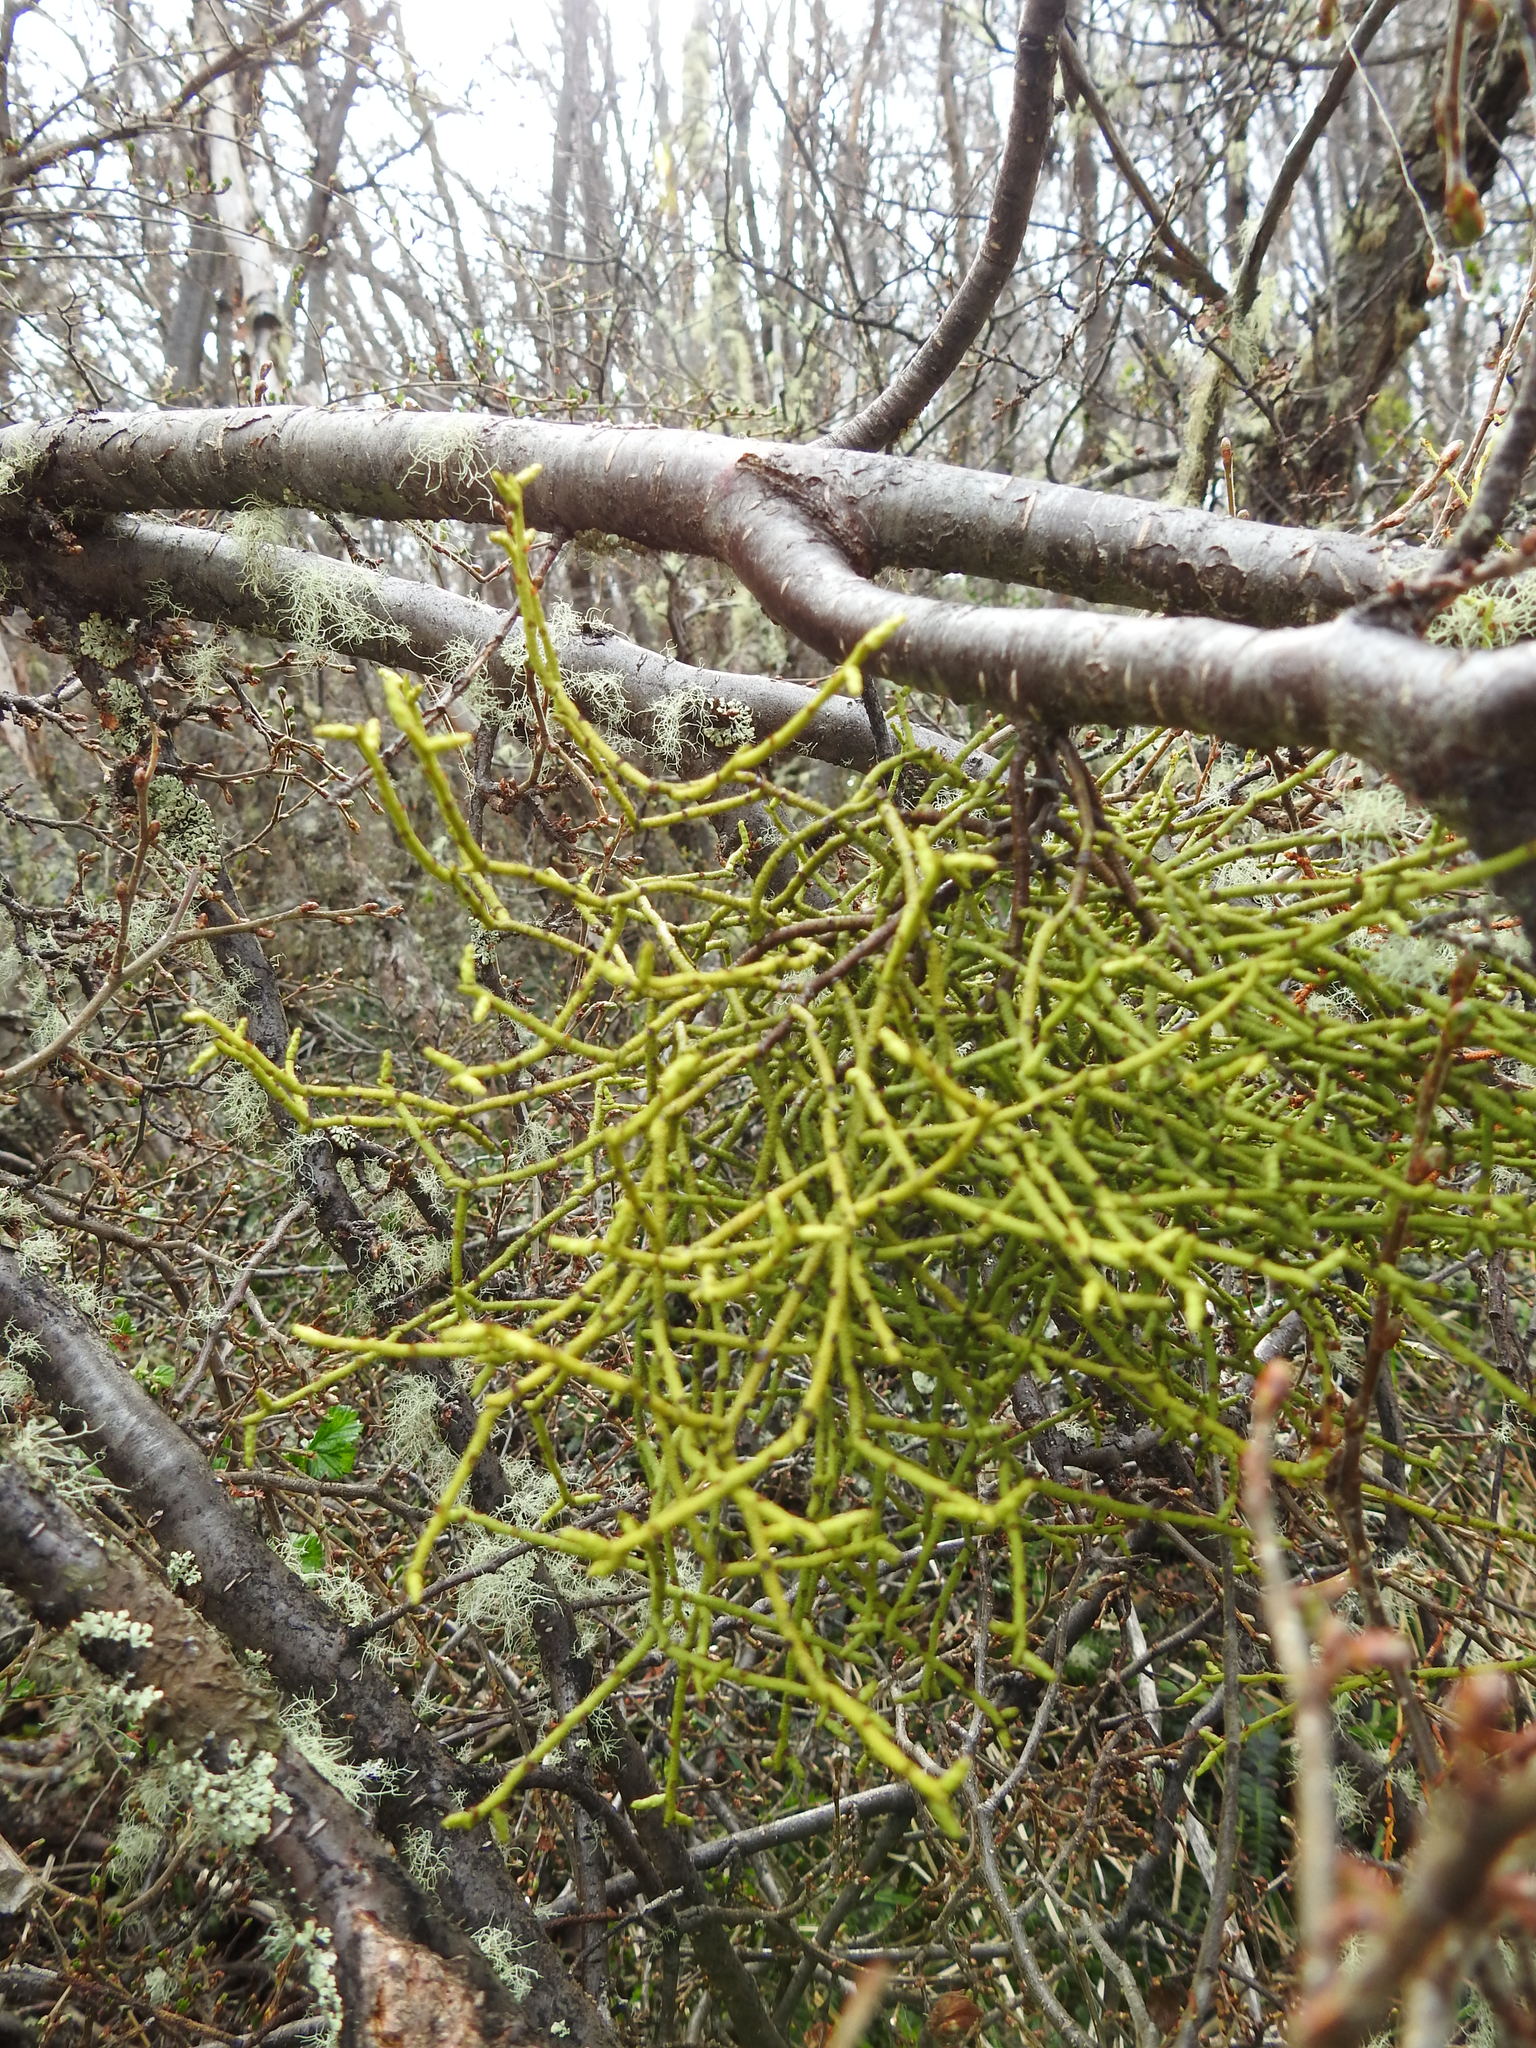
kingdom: Plantae
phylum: Tracheophyta
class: Magnoliopsida
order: Santalales
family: Misodendraceae
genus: Misodendrum
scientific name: Misodendrum punctulatum
